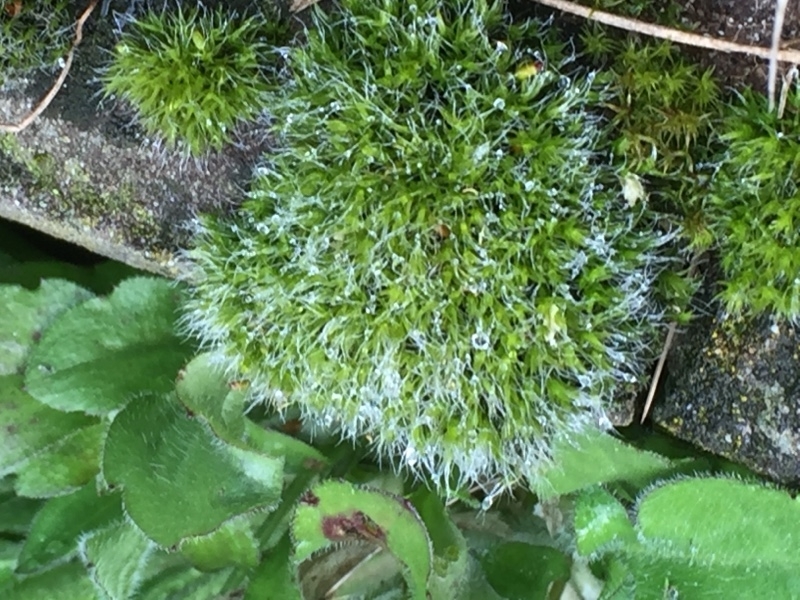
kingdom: Plantae
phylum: Bryophyta
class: Bryopsida
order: Grimmiales
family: Grimmiaceae
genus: Grimmia
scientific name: Grimmia pulvinata
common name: Grey-cushioned grimmia
